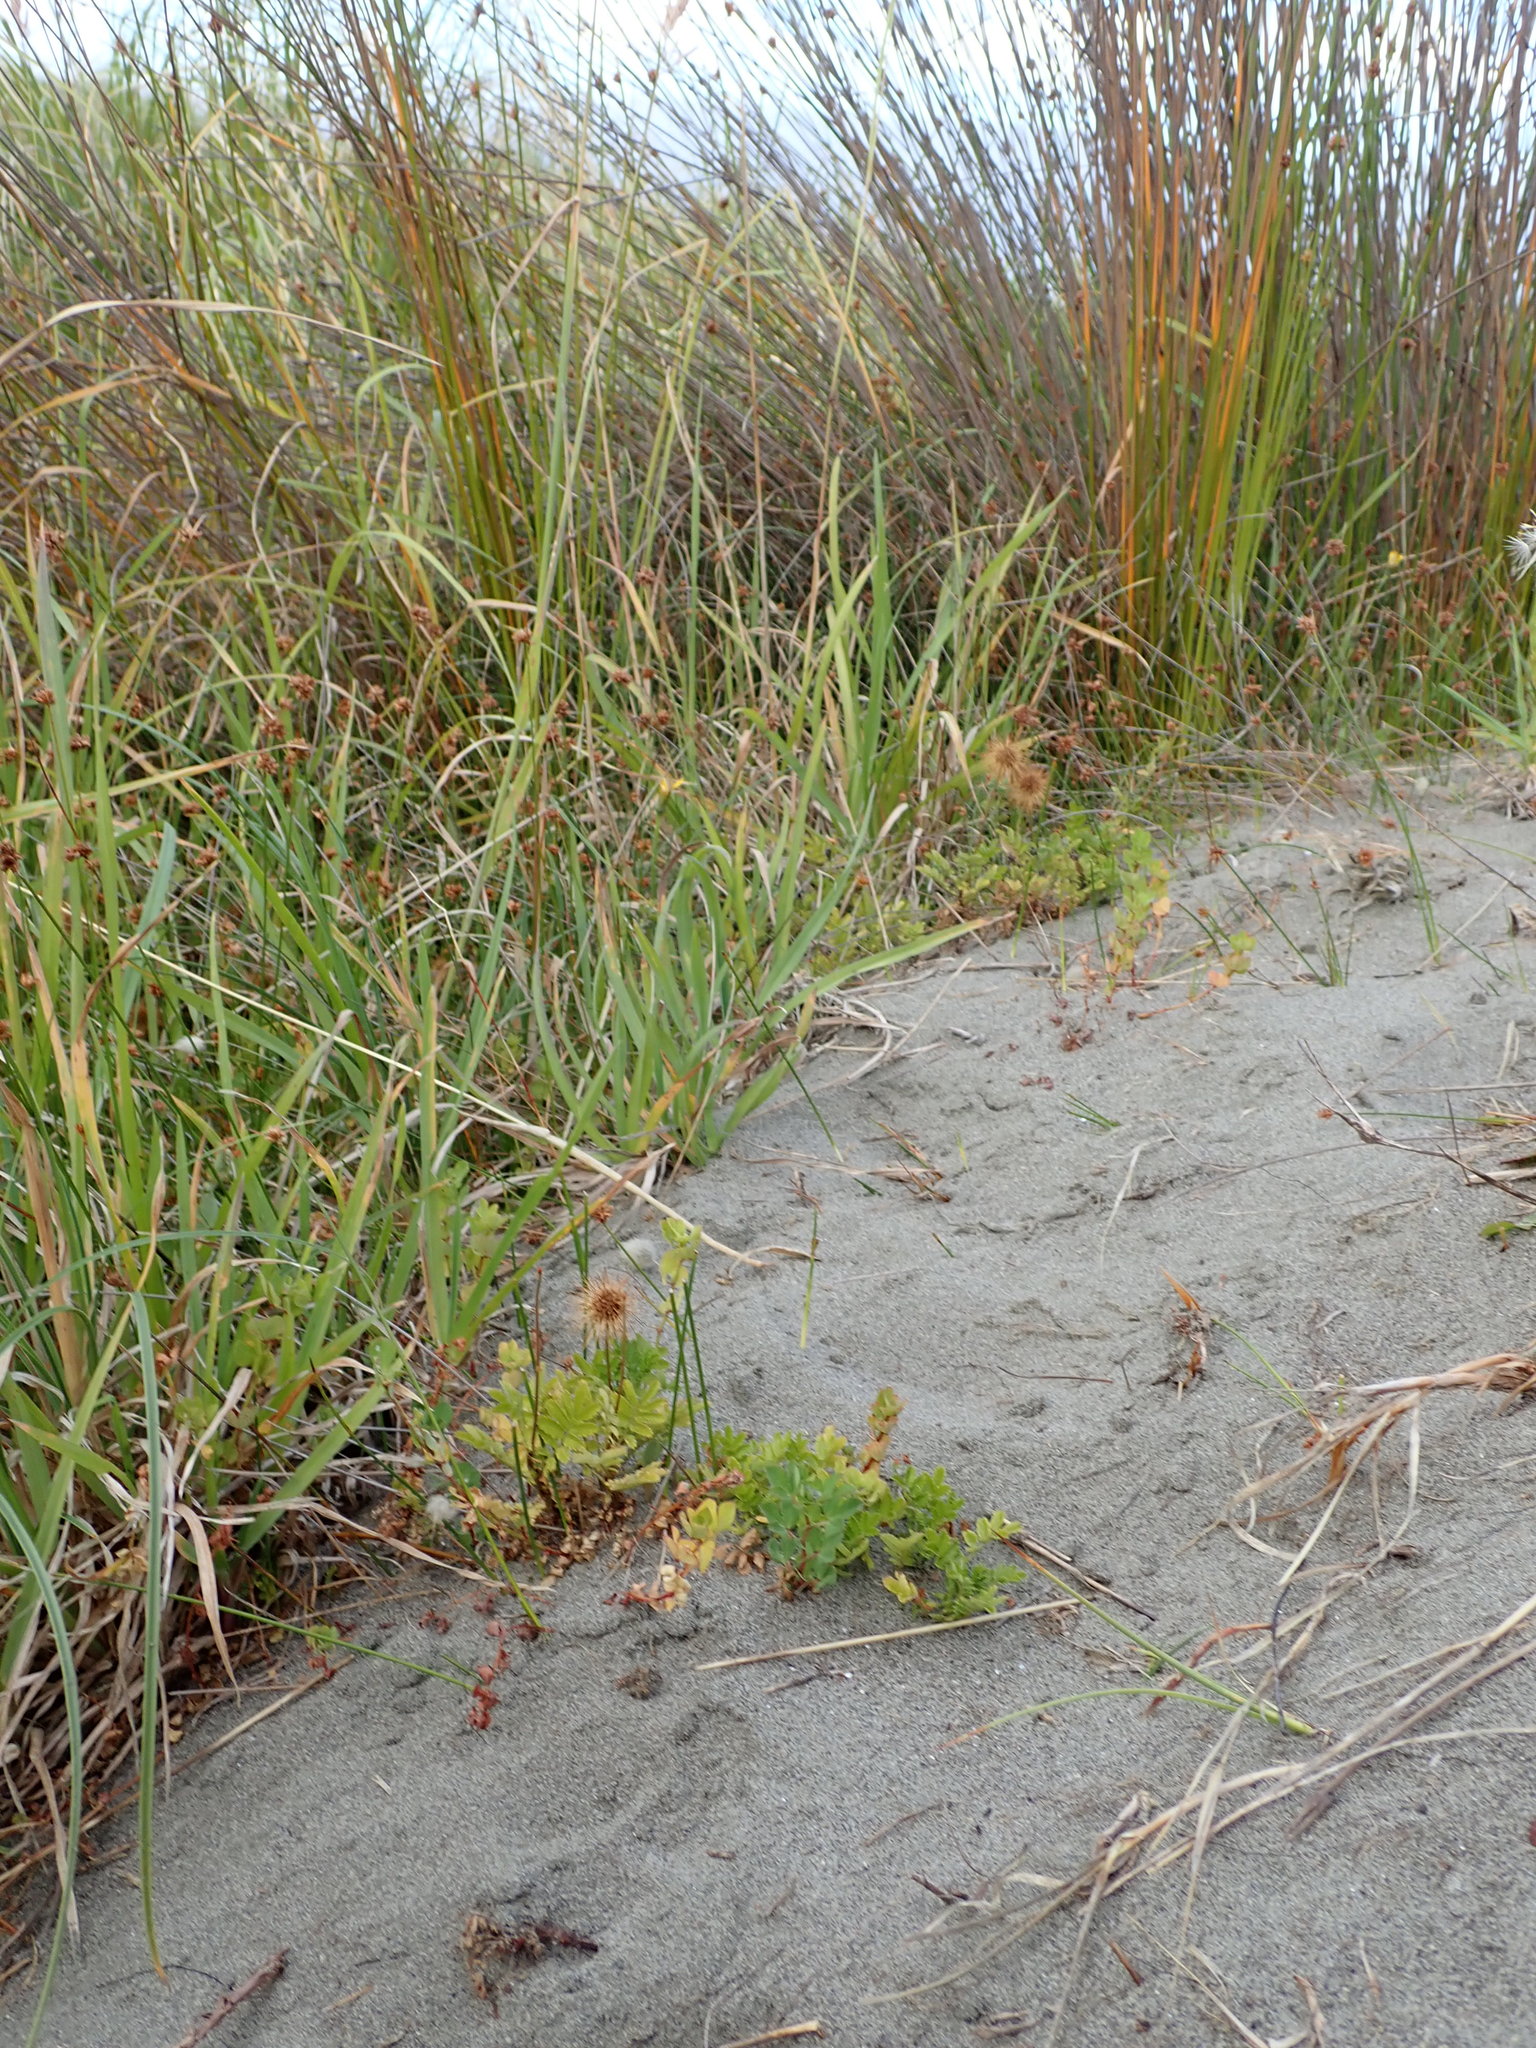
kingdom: Plantae
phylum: Tracheophyta
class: Magnoliopsida
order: Rosales
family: Rosaceae
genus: Acaena
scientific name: Acaena novae-zelandiae
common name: Pirri-pirri-bur
